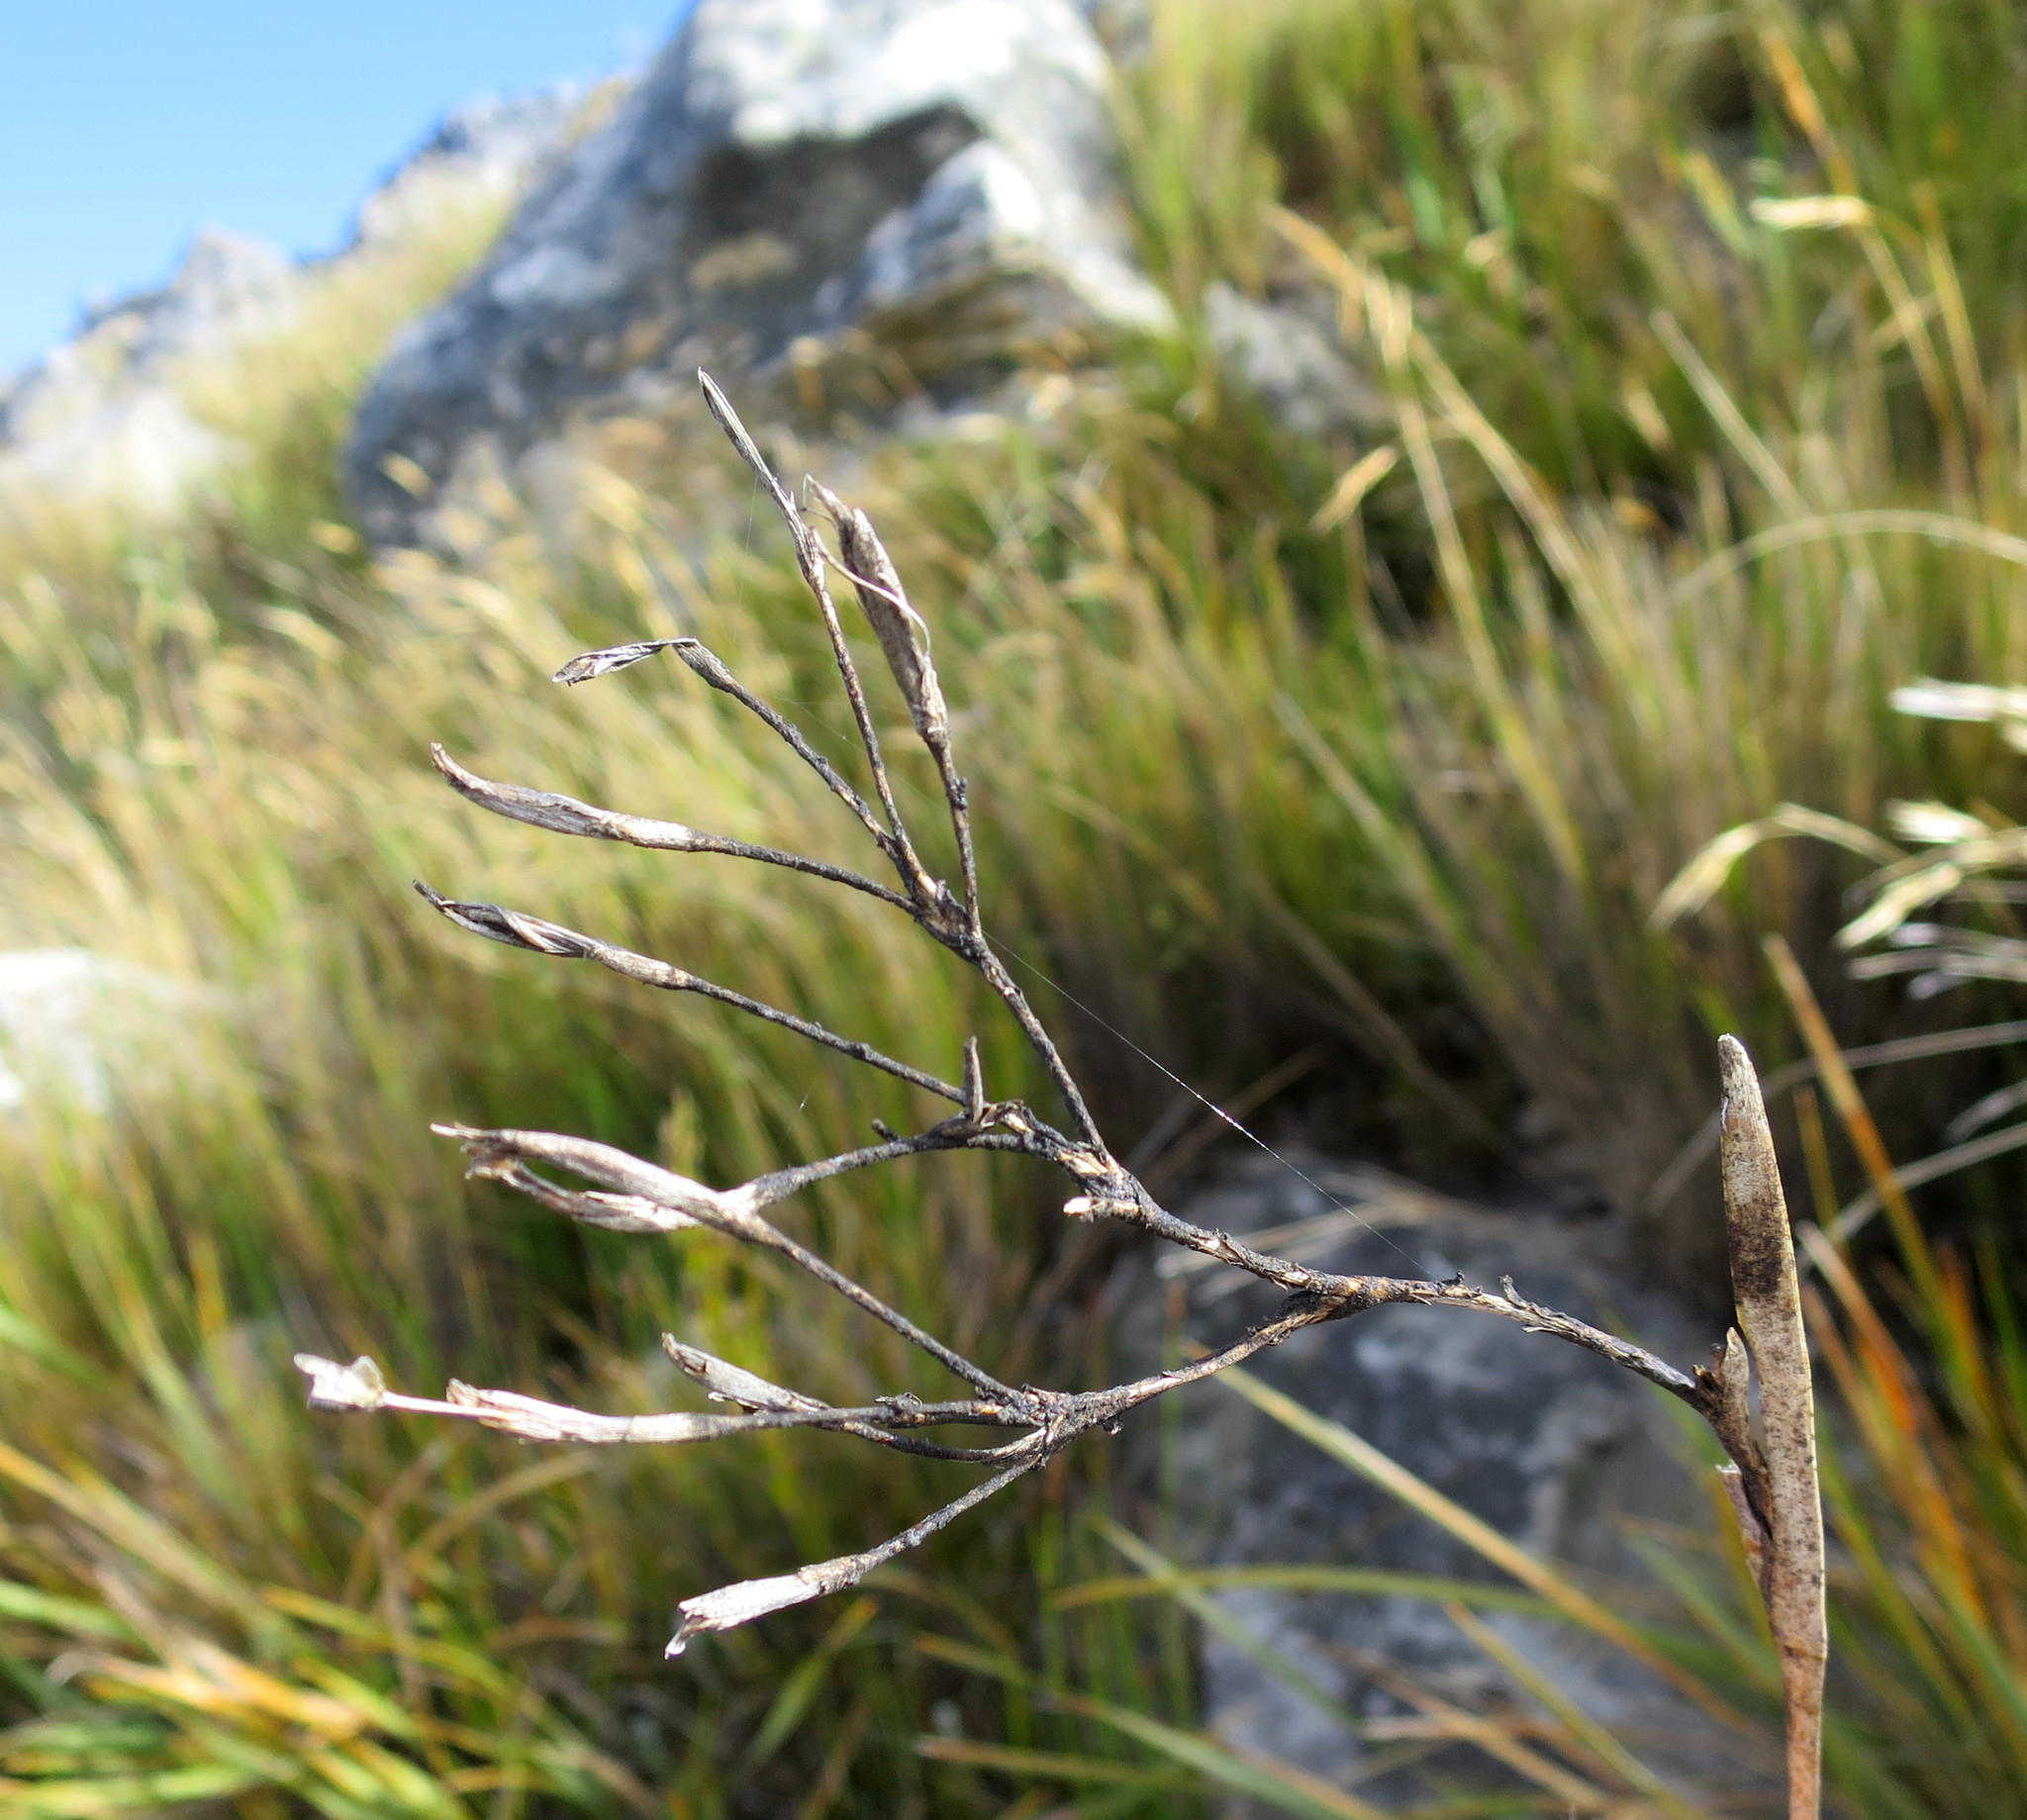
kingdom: Plantae
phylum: Tracheophyta
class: Liliopsida
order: Asparagales
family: Iridaceae
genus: Bobartia
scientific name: Bobartia paniculata
